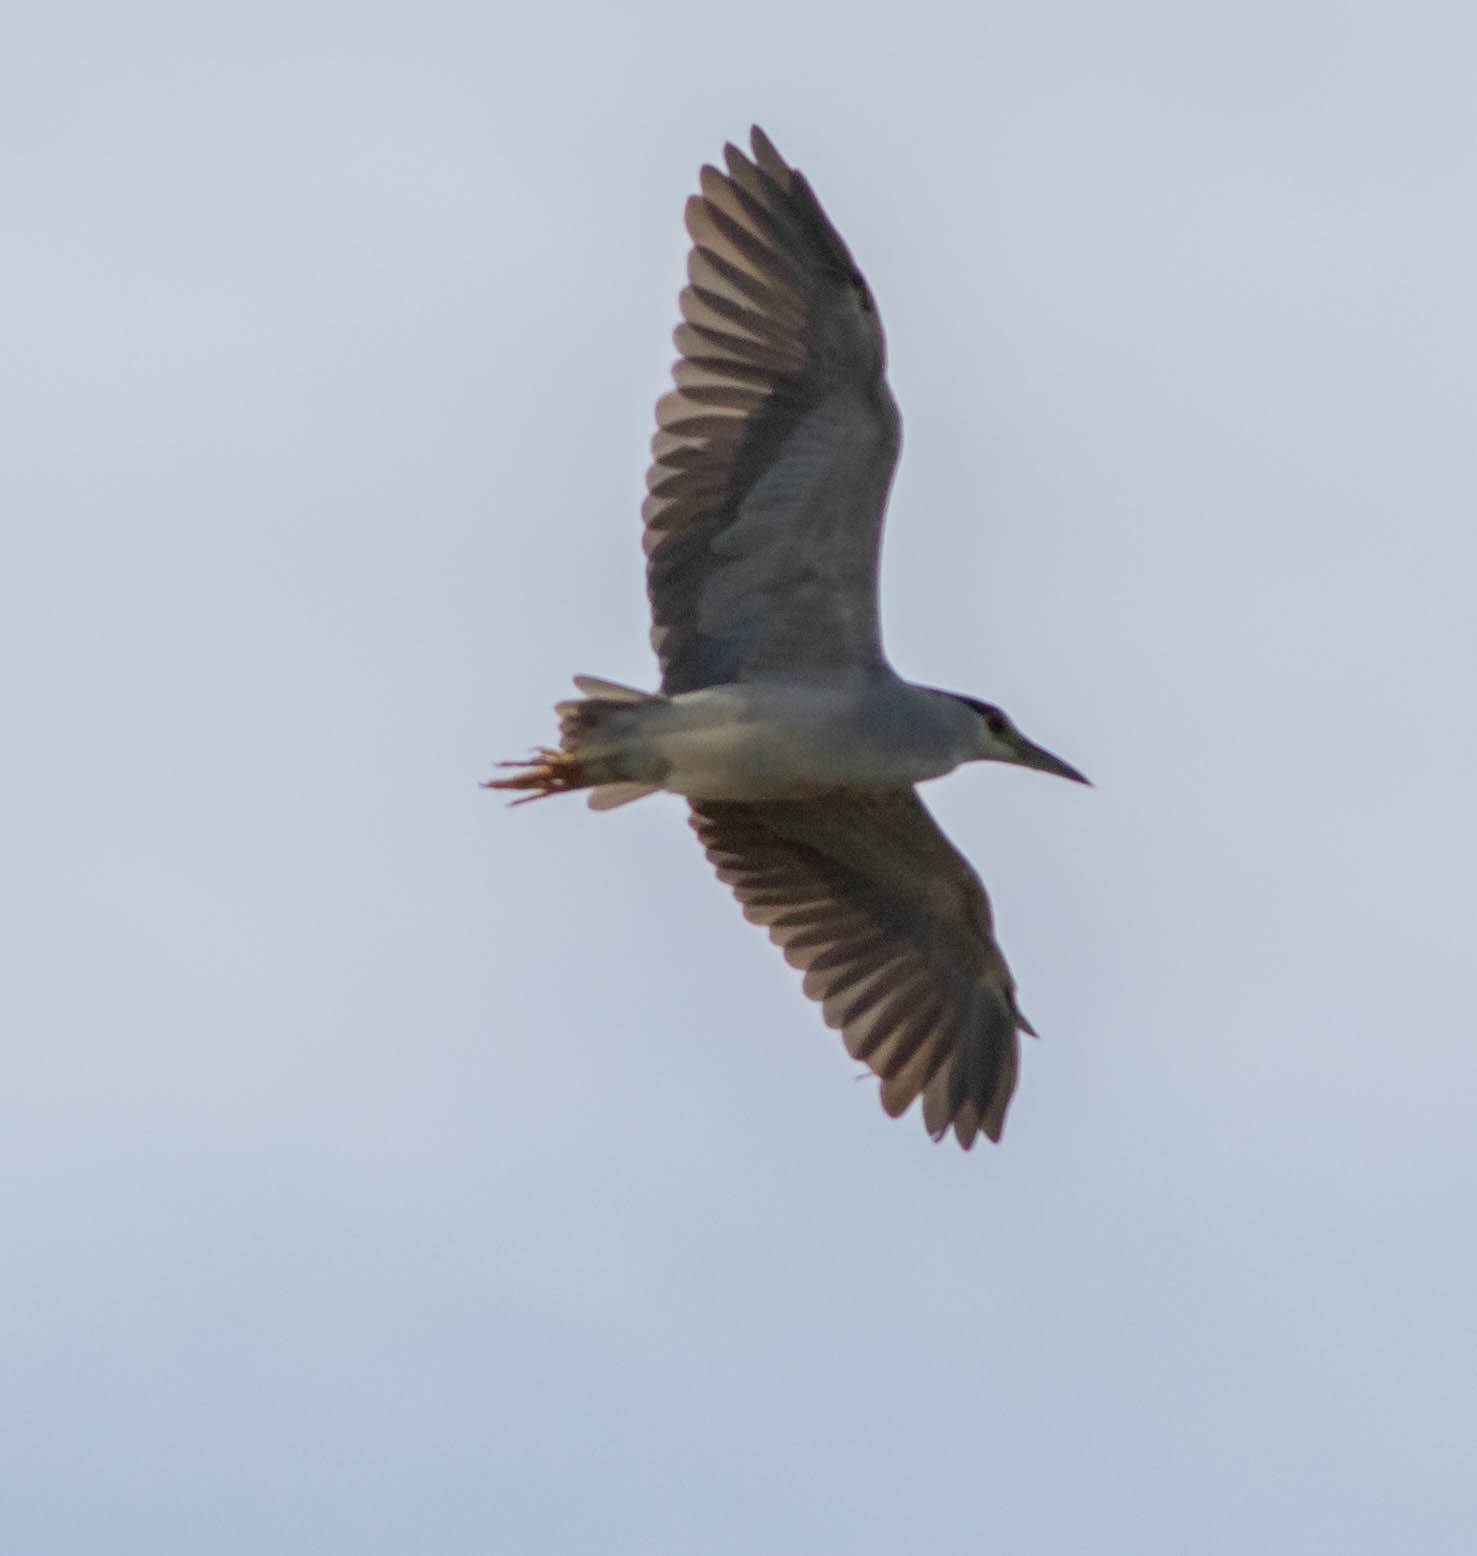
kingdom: Animalia
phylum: Chordata
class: Aves
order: Pelecaniformes
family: Ardeidae
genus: Nycticorax
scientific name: Nycticorax nycticorax
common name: Black-crowned night heron
